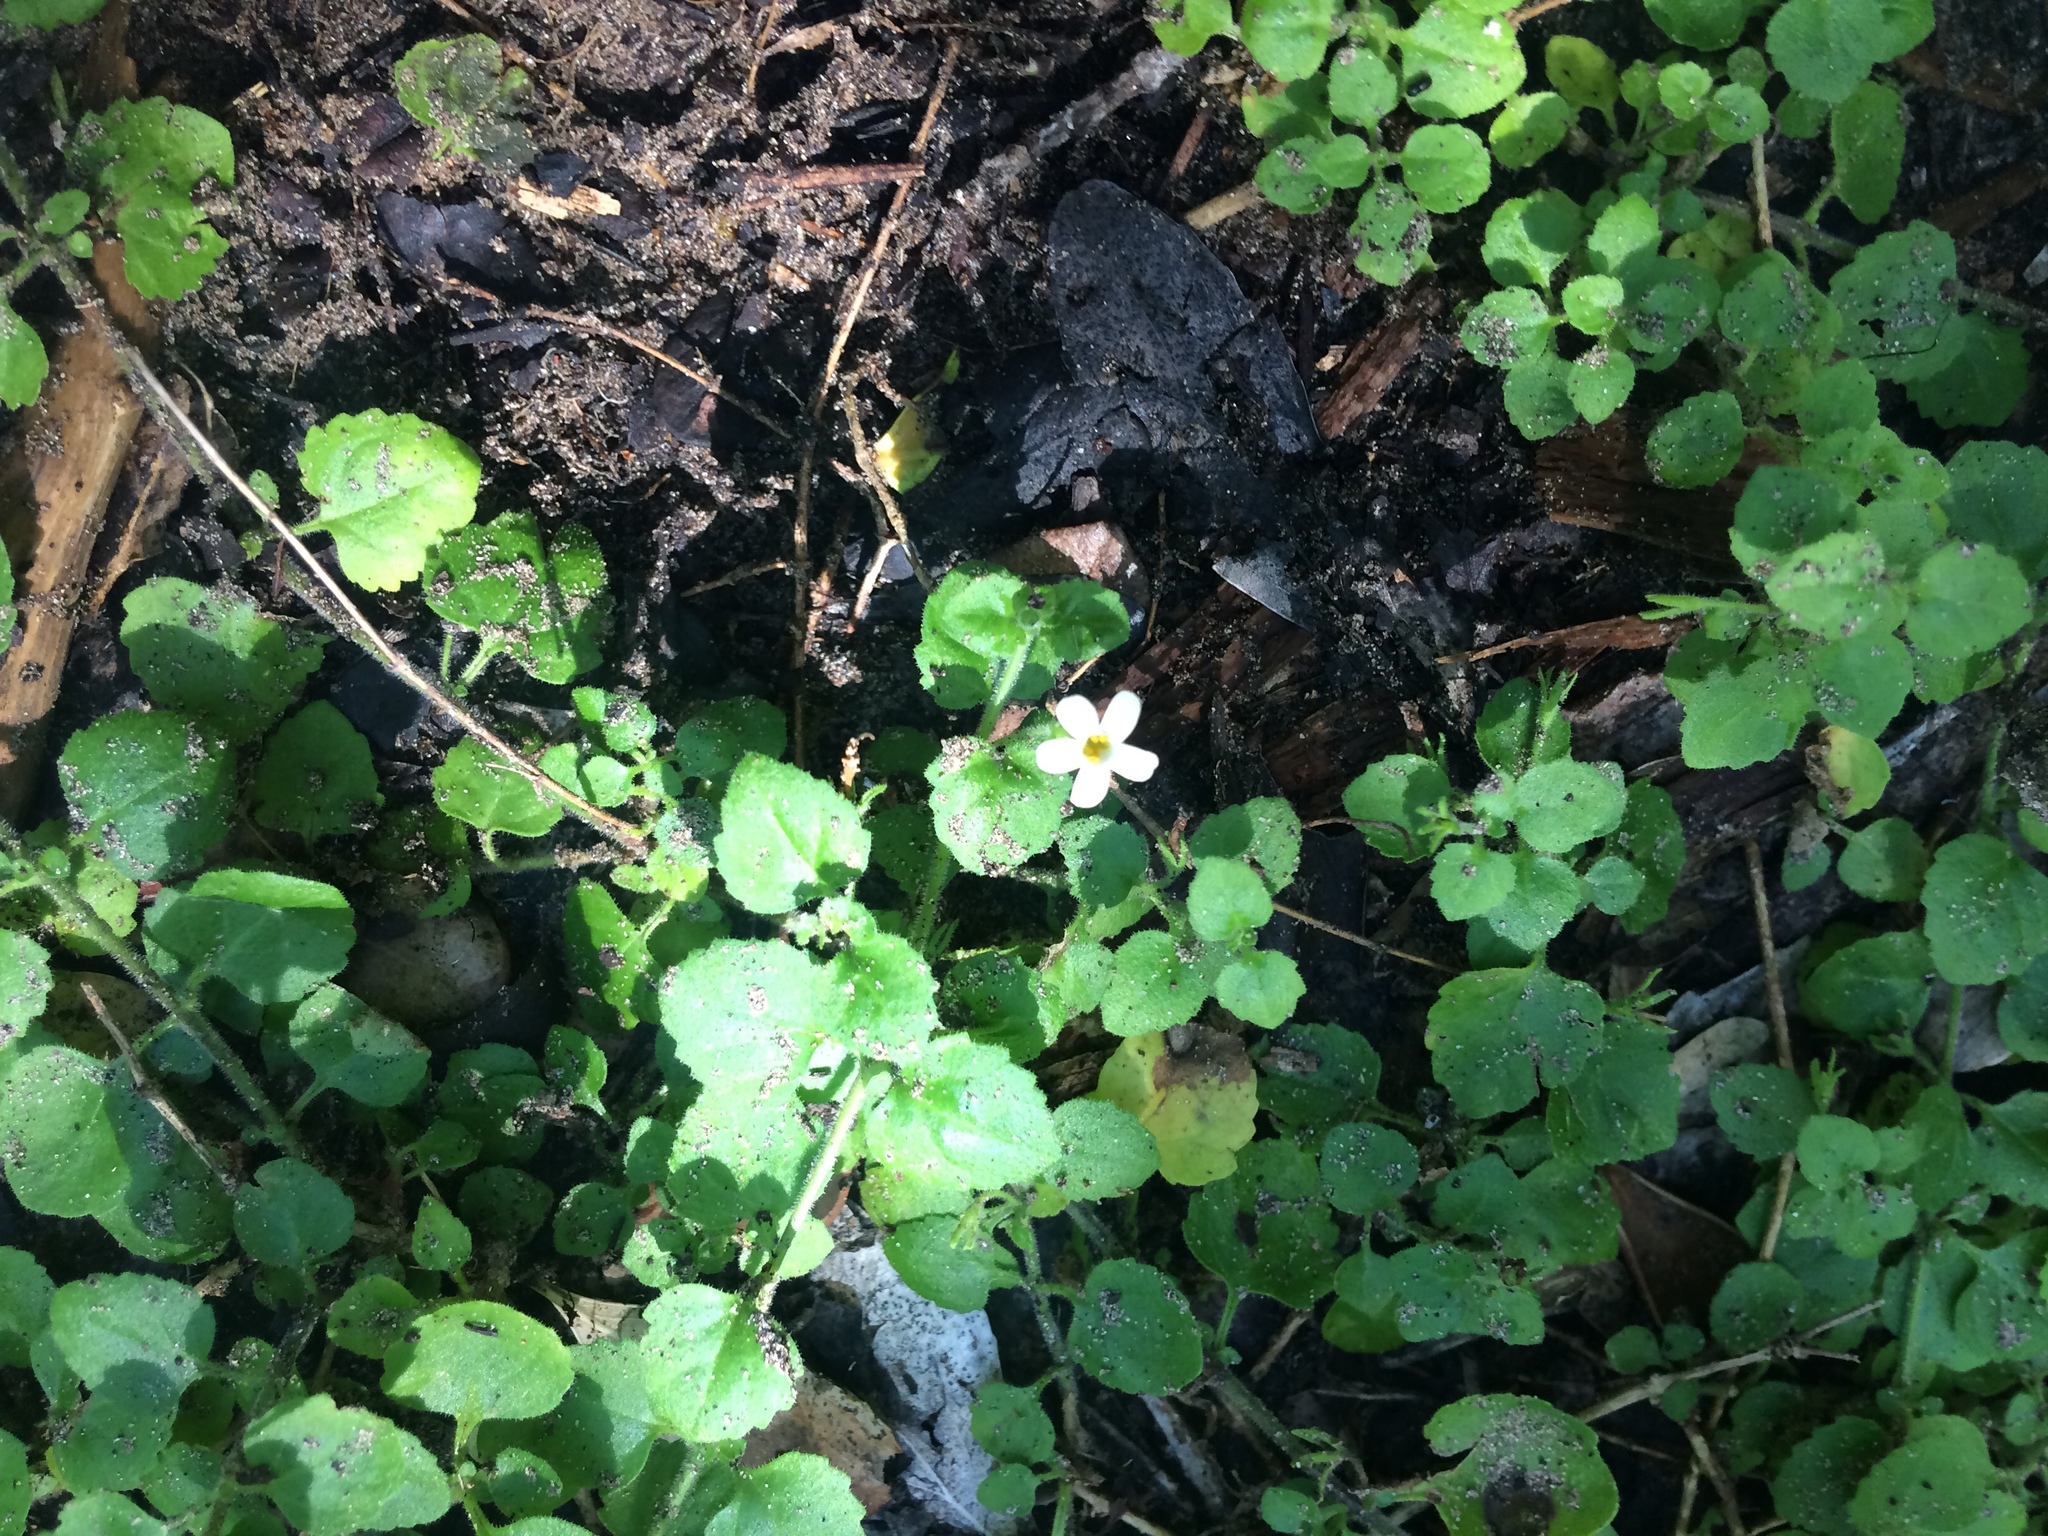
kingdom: Plantae
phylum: Tracheophyta
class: Magnoliopsida
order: Lamiales
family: Scrophulariaceae
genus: Chaenostoma
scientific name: Chaenostoma cordatum
